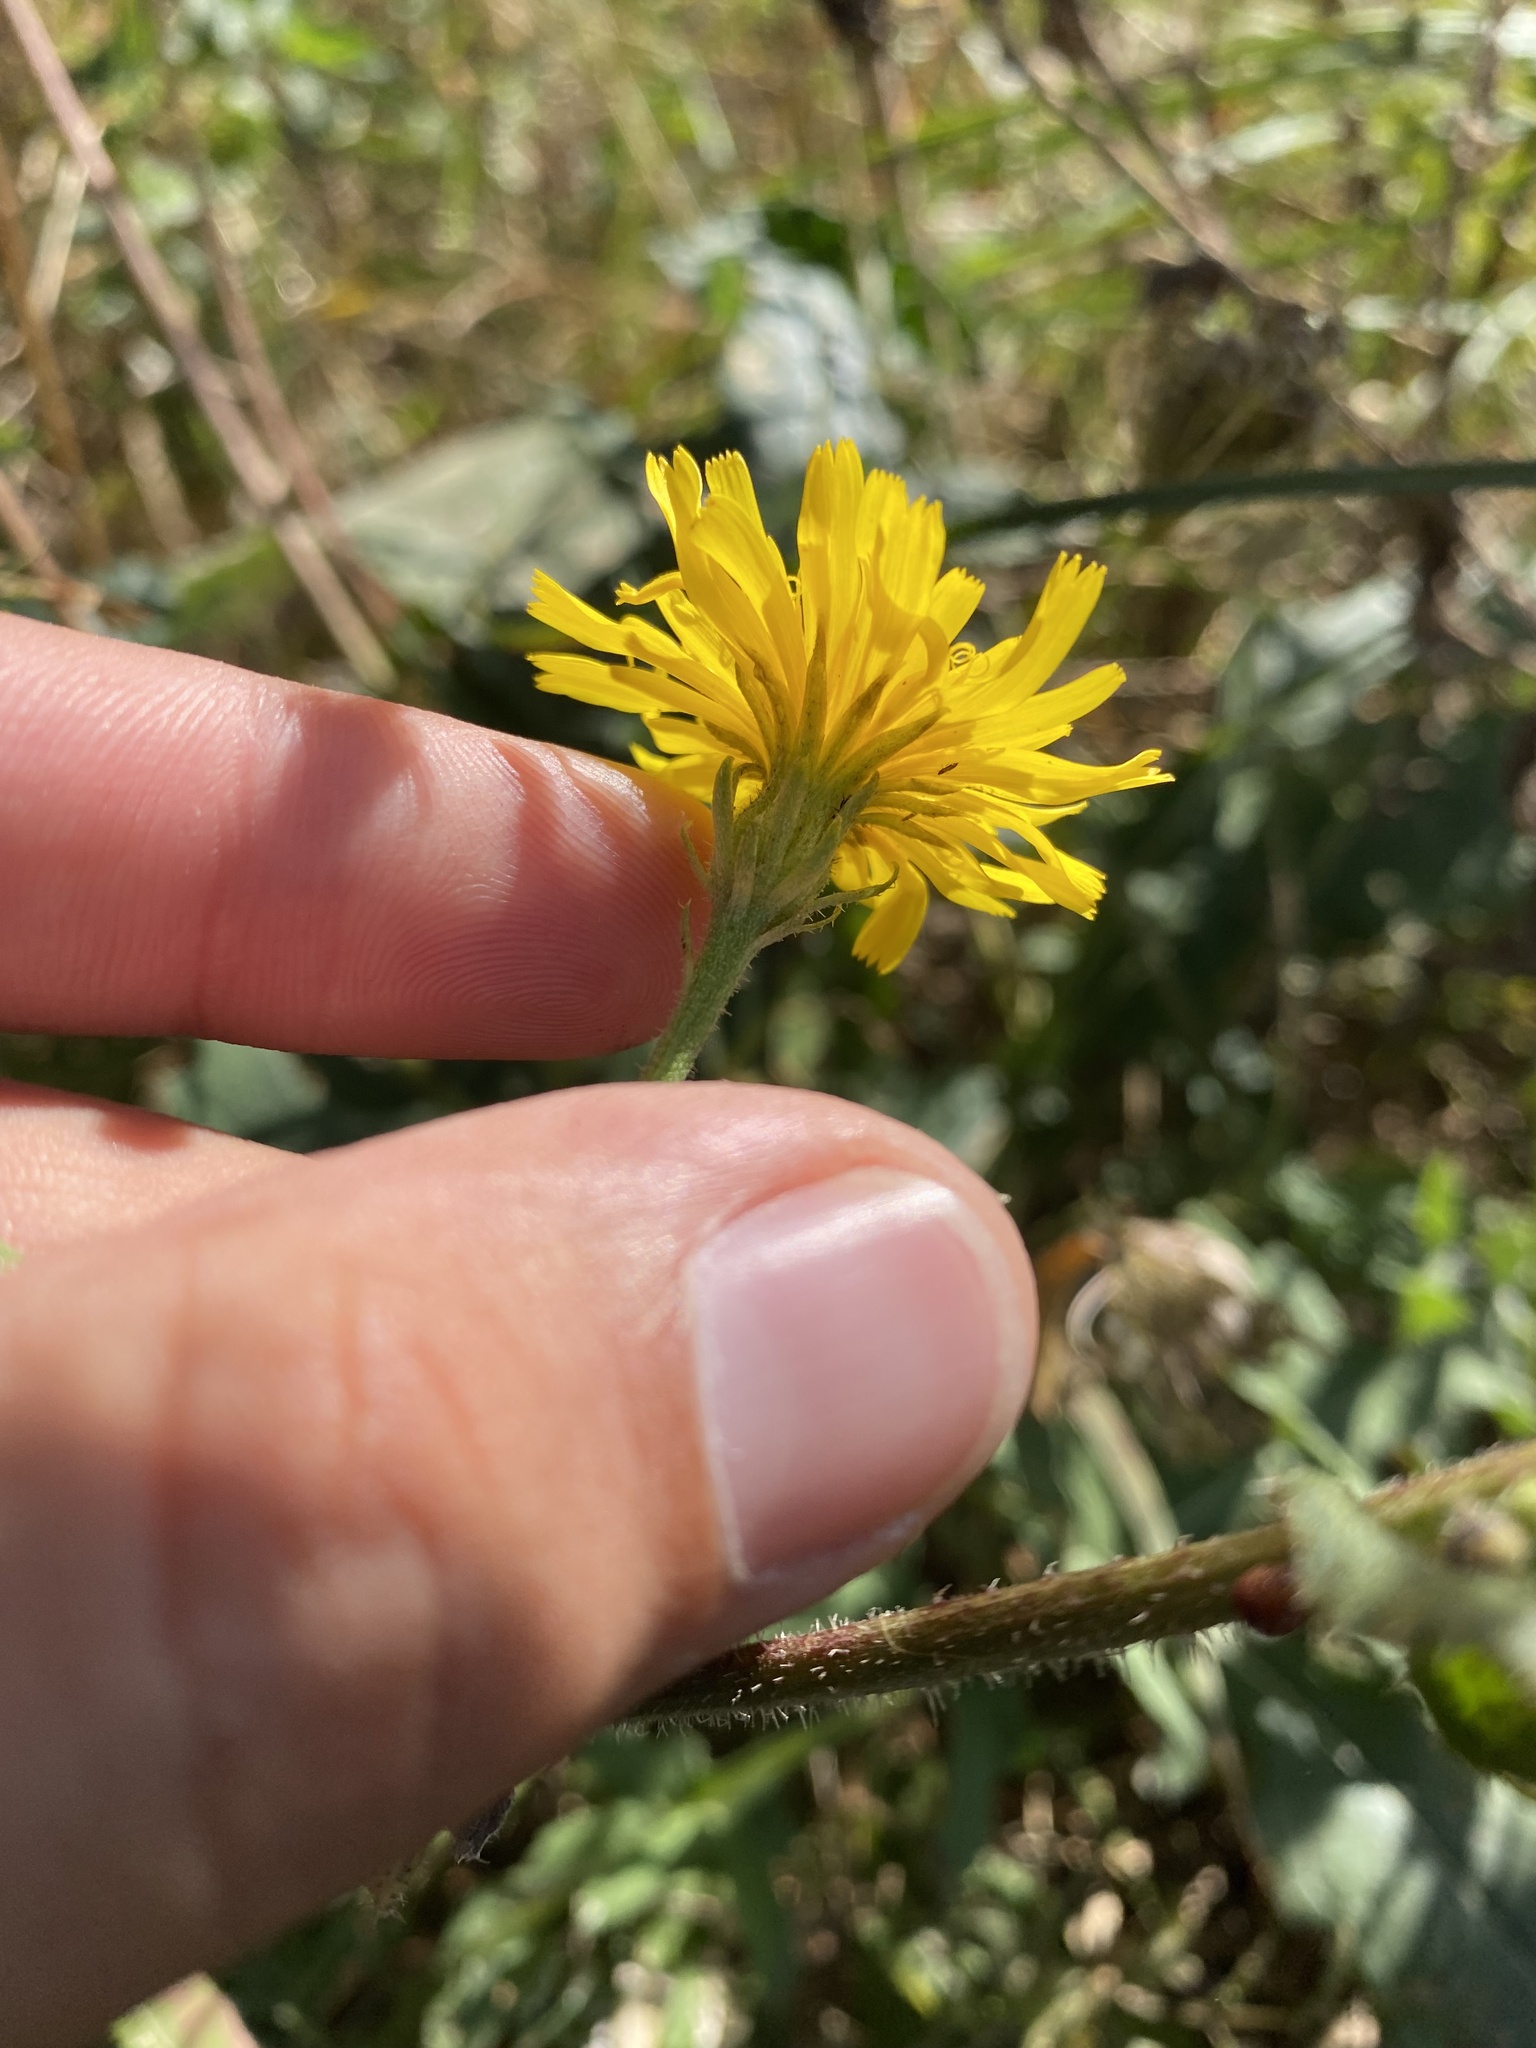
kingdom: Plantae
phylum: Tracheophyta
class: Magnoliopsida
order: Asterales
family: Asteraceae
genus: Picris
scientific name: Picris hieracioides
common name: Hawkweed oxtongue
